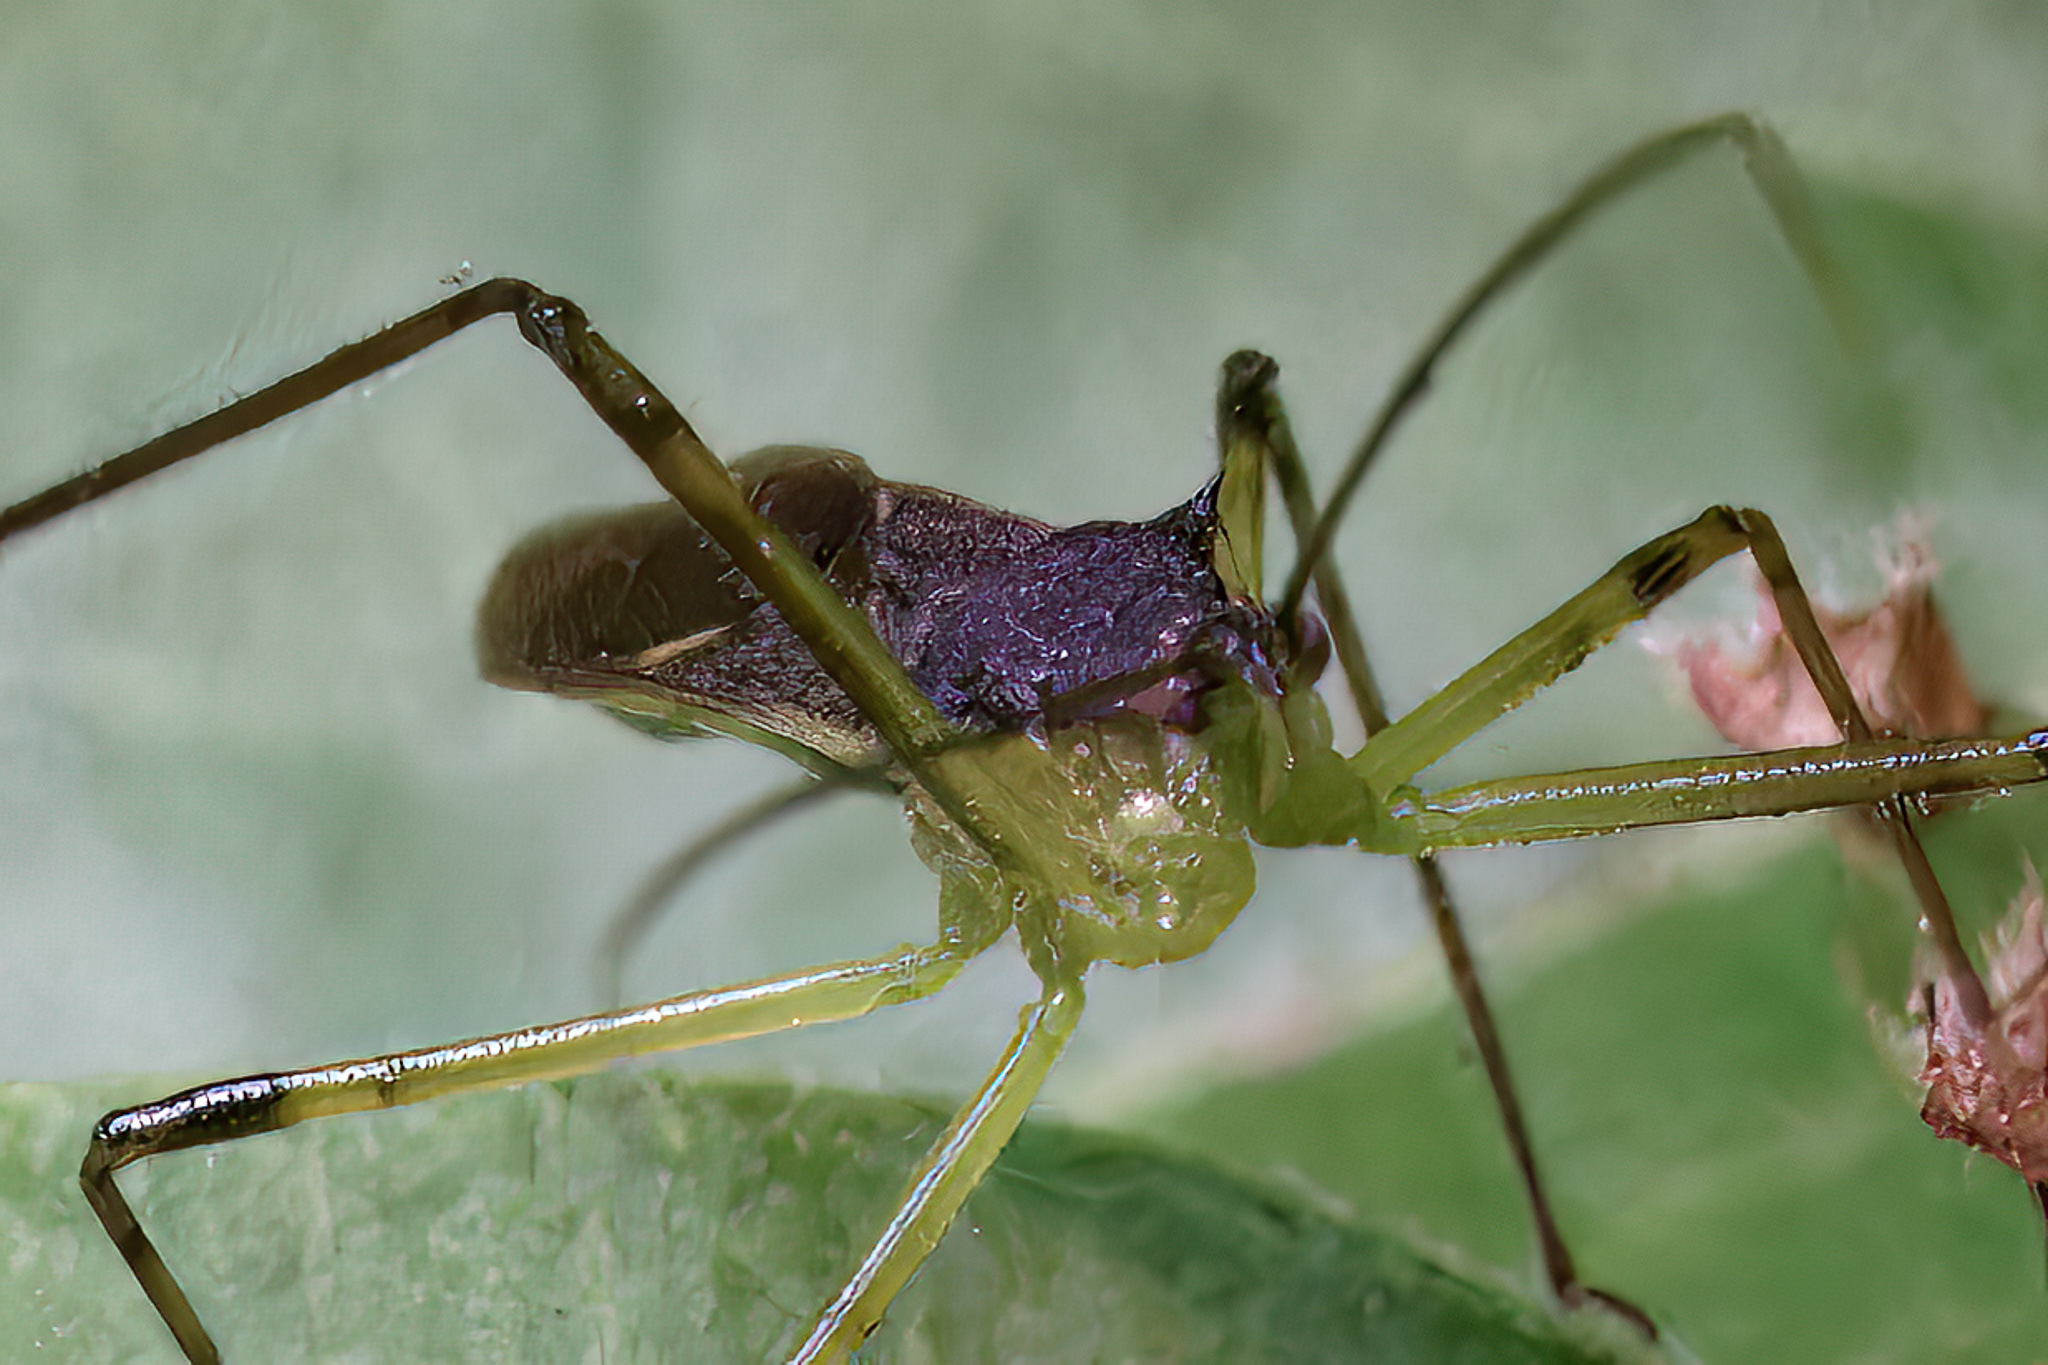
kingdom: Animalia
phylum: Arthropoda
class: Insecta
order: Hemiptera
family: Reduviidae
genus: Zelus
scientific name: Zelus luridus
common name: Pale green assassin bug
